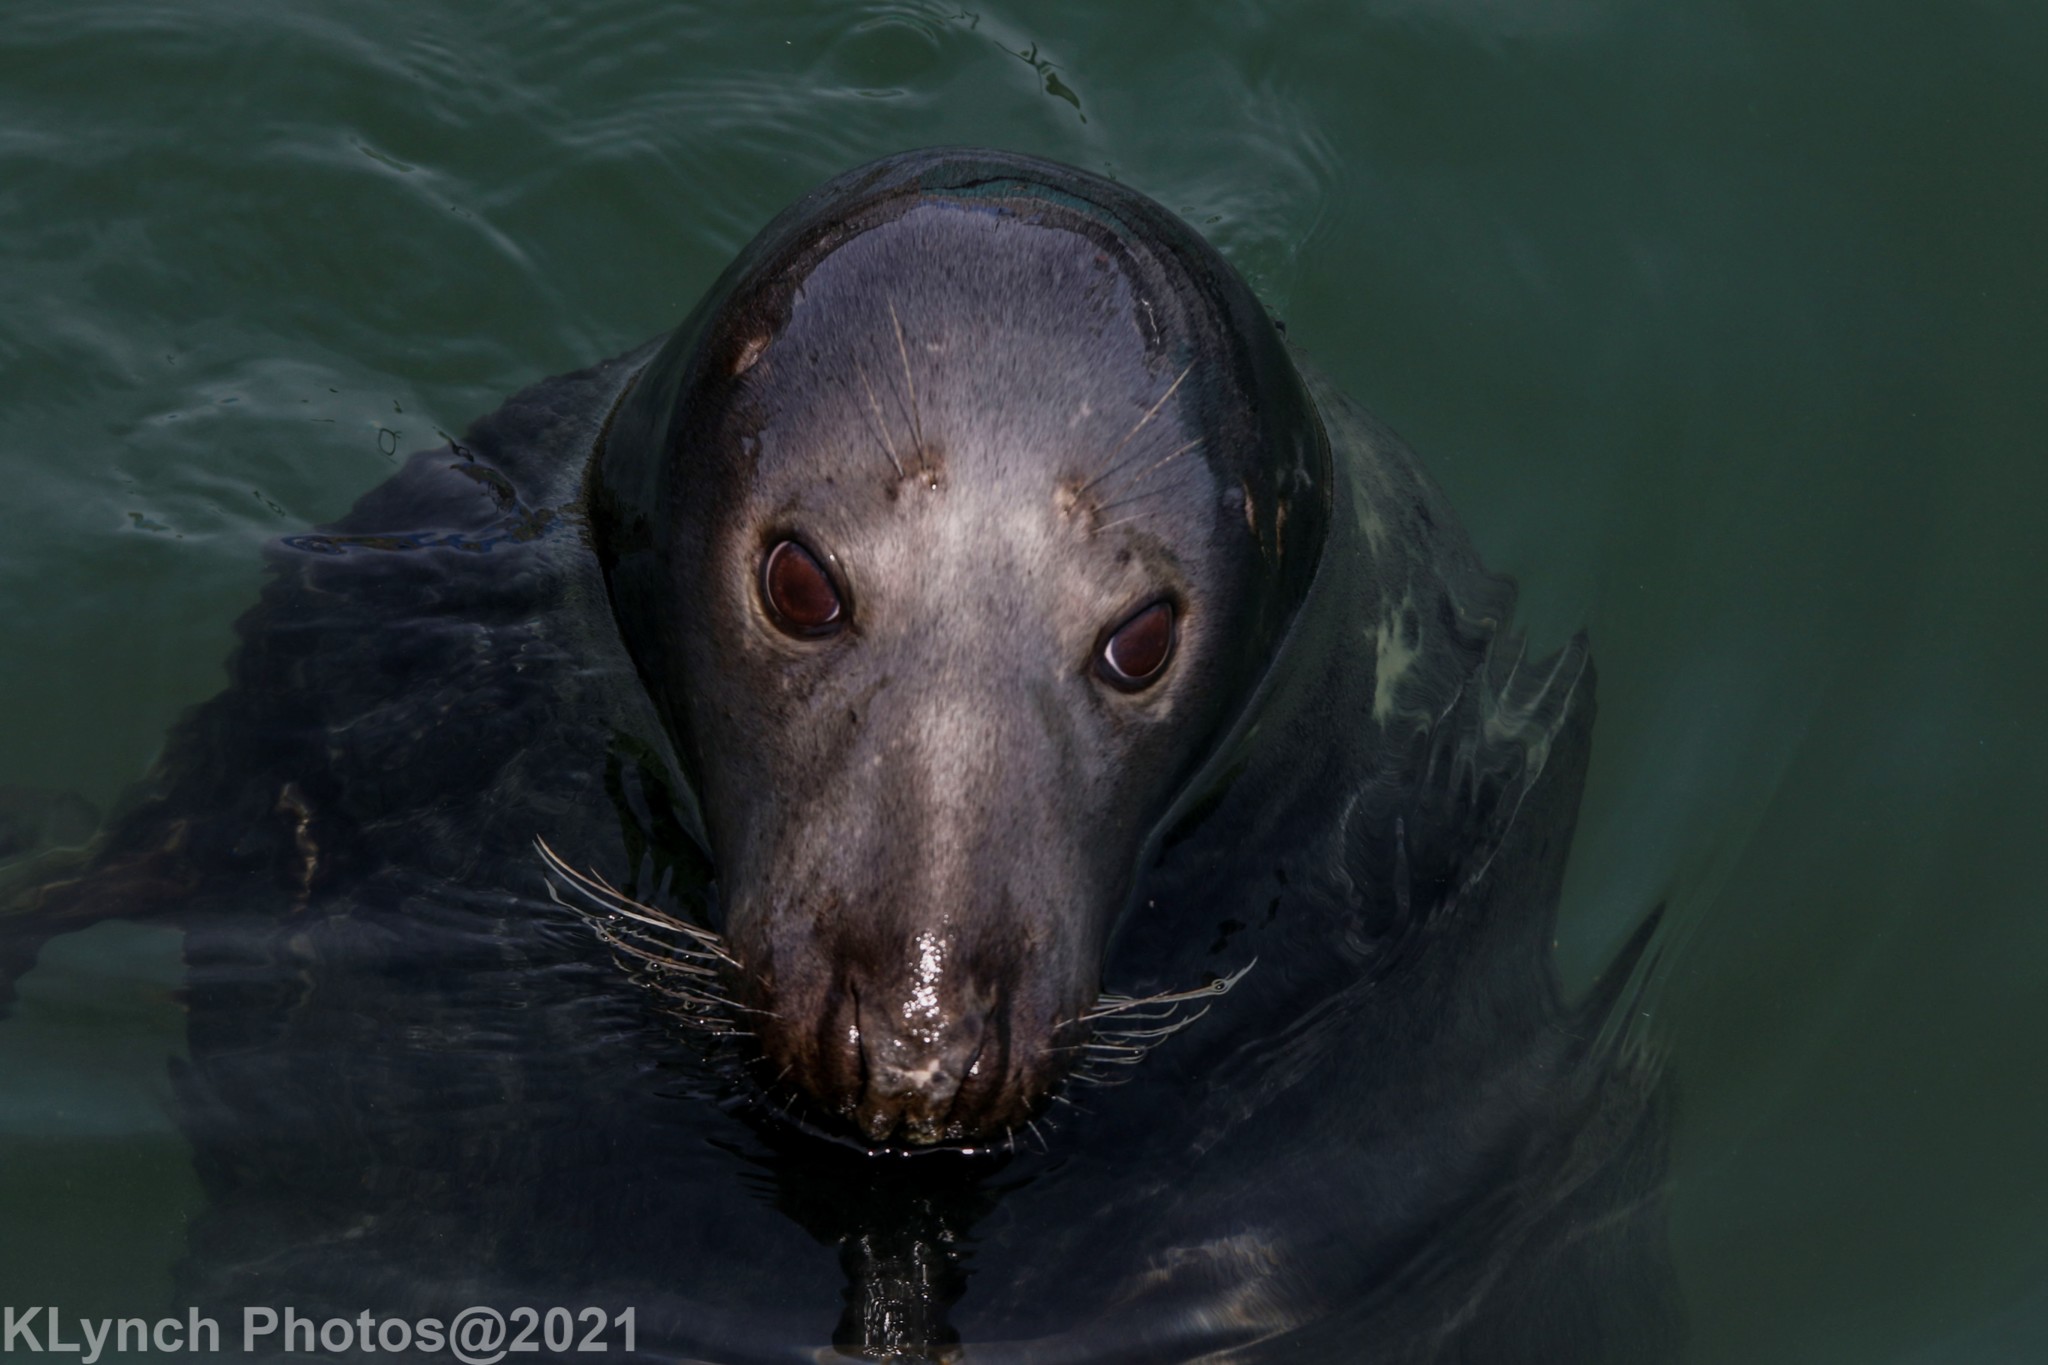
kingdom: Animalia
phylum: Chordata
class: Mammalia
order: Carnivora
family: Phocidae
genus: Halichoerus
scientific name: Halichoerus grypus
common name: Grey seal
